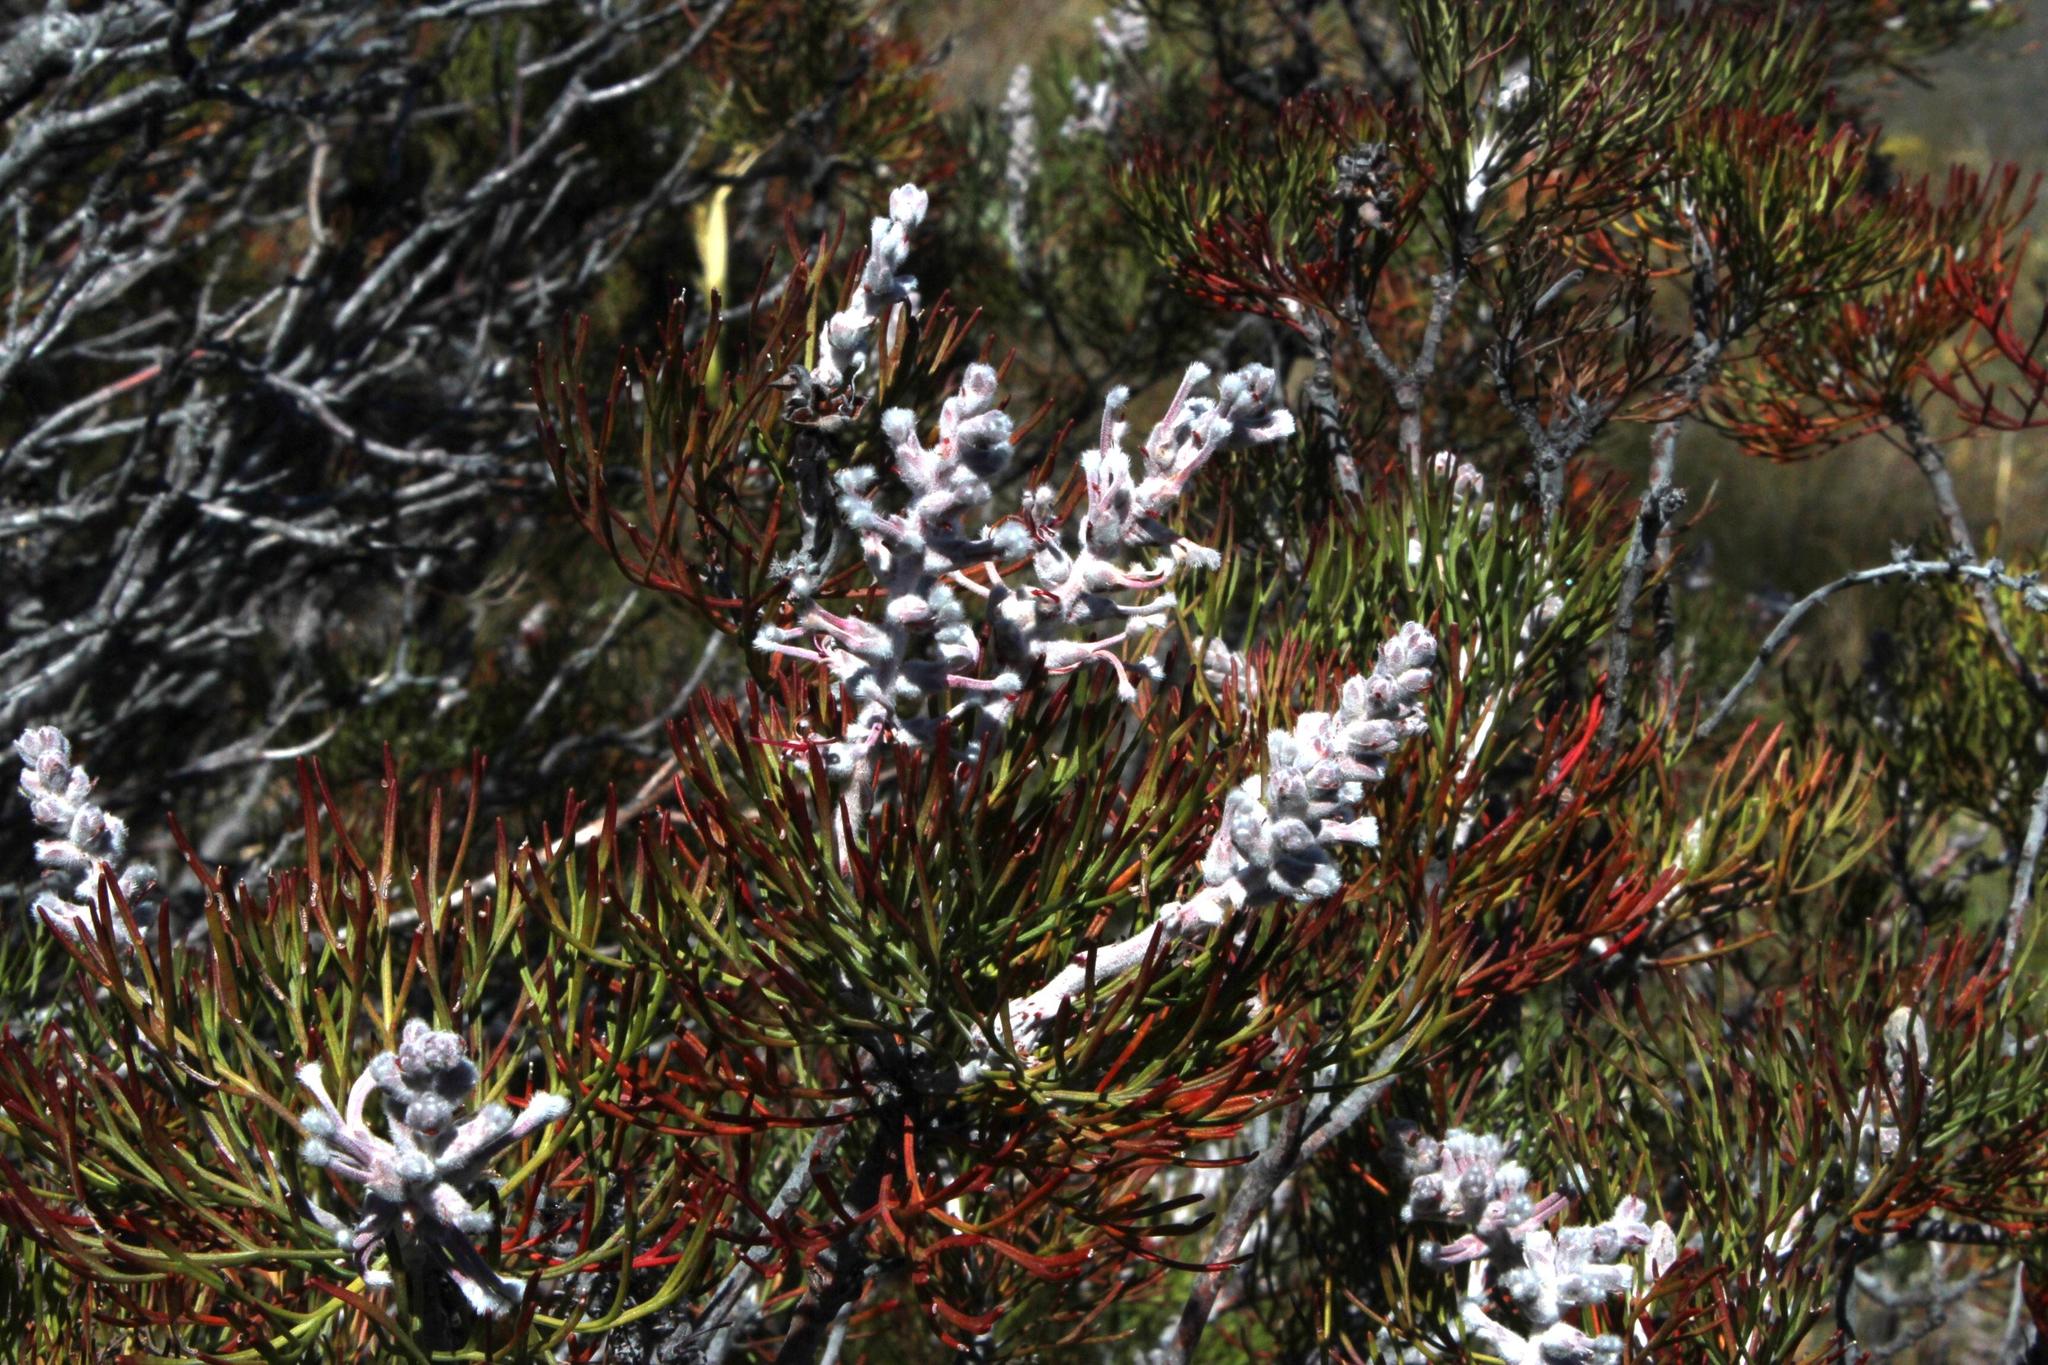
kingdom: Plantae
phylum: Tracheophyta
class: Magnoliopsida
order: Proteales
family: Proteaceae
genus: Paranomus
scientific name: Paranomus dispersus
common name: Long-head sceptre
